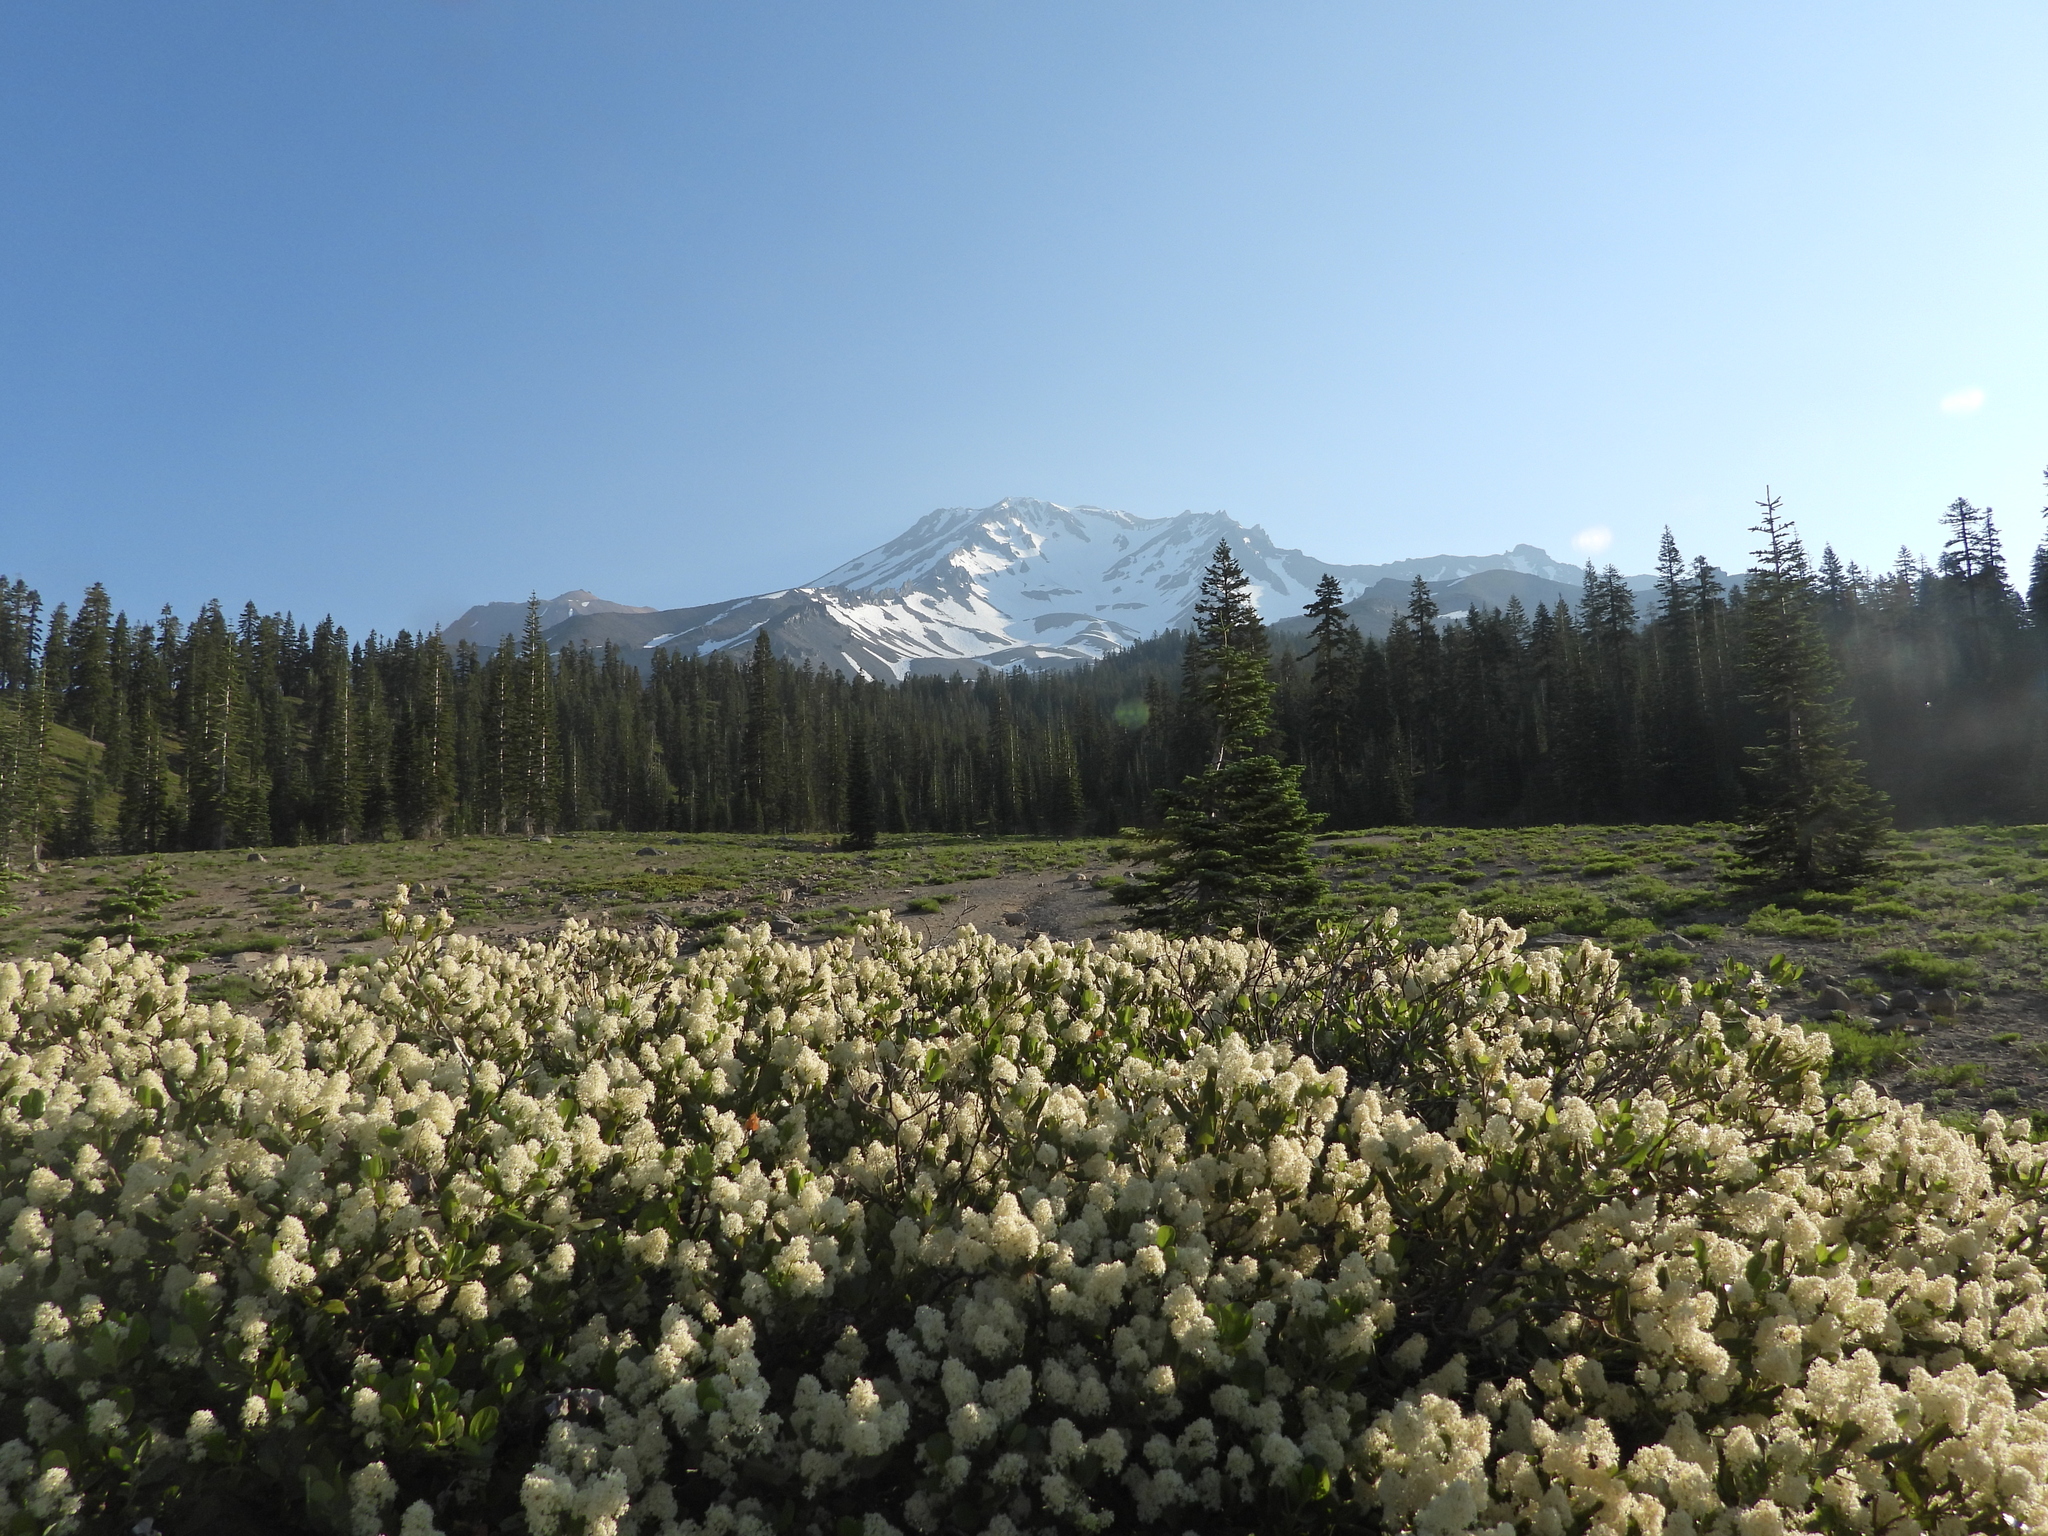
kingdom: Plantae
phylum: Tracheophyta
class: Magnoliopsida
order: Rosales
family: Rhamnaceae
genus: Ceanothus
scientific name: Ceanothus velutinus
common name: Snowbrush
